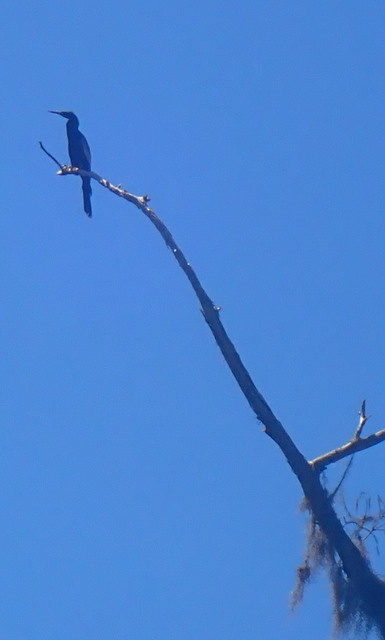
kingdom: Animalia
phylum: Chordata
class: Aves
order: Suliformes
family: Anhingidae
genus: Anhinga
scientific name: Anhinga anhinga
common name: Anhinga
